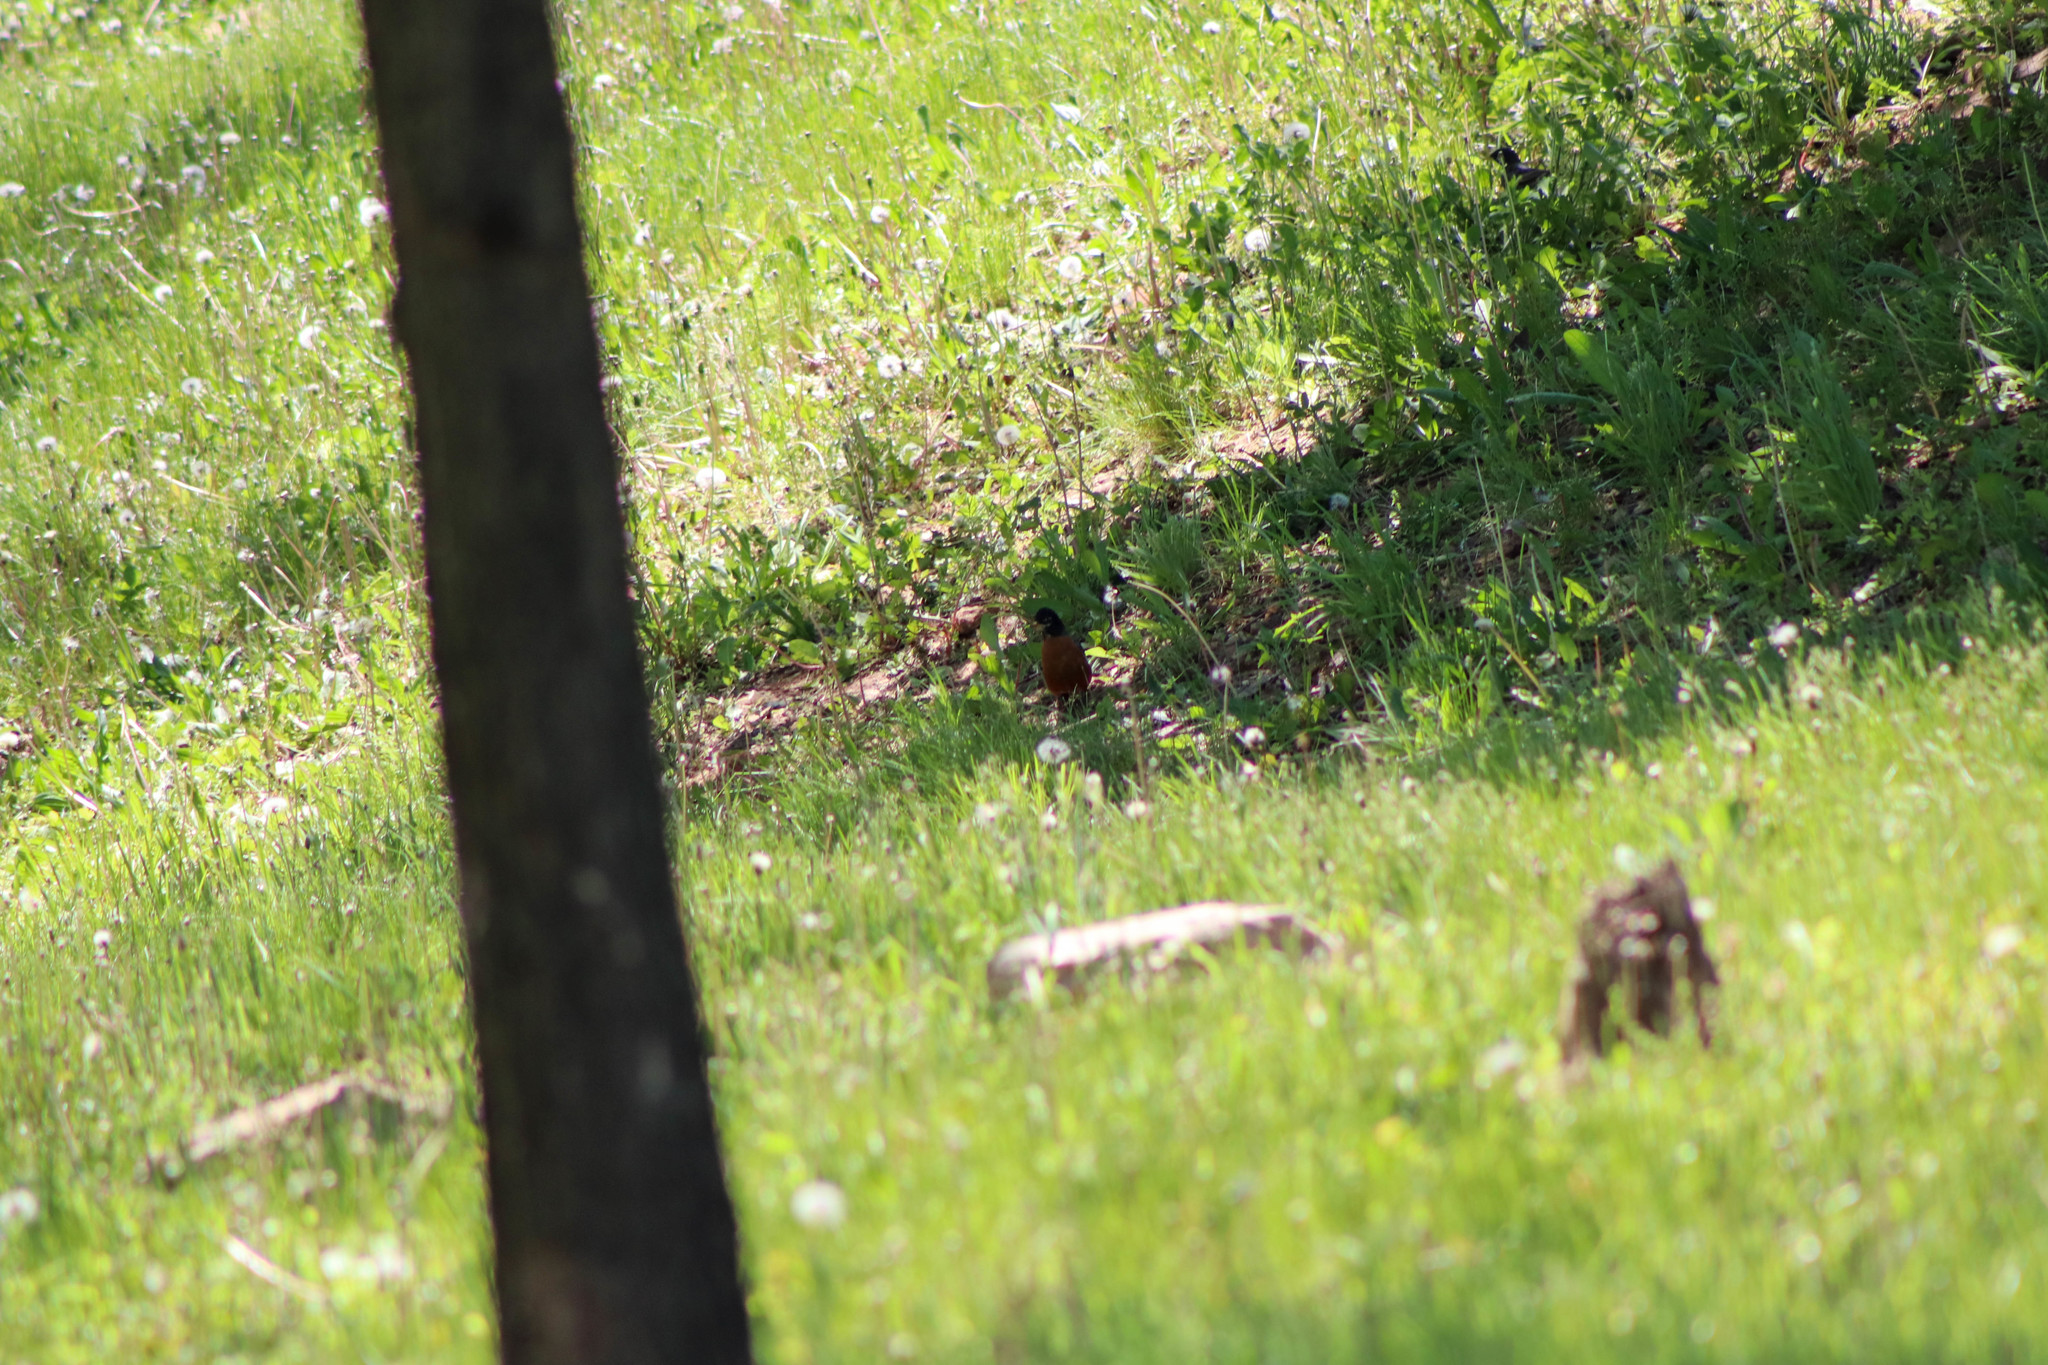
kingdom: Animalia
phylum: Chordata
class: Aves
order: Passeriformes
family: Turdidae
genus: Turdus
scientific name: Turdus migratorius
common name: American robin
